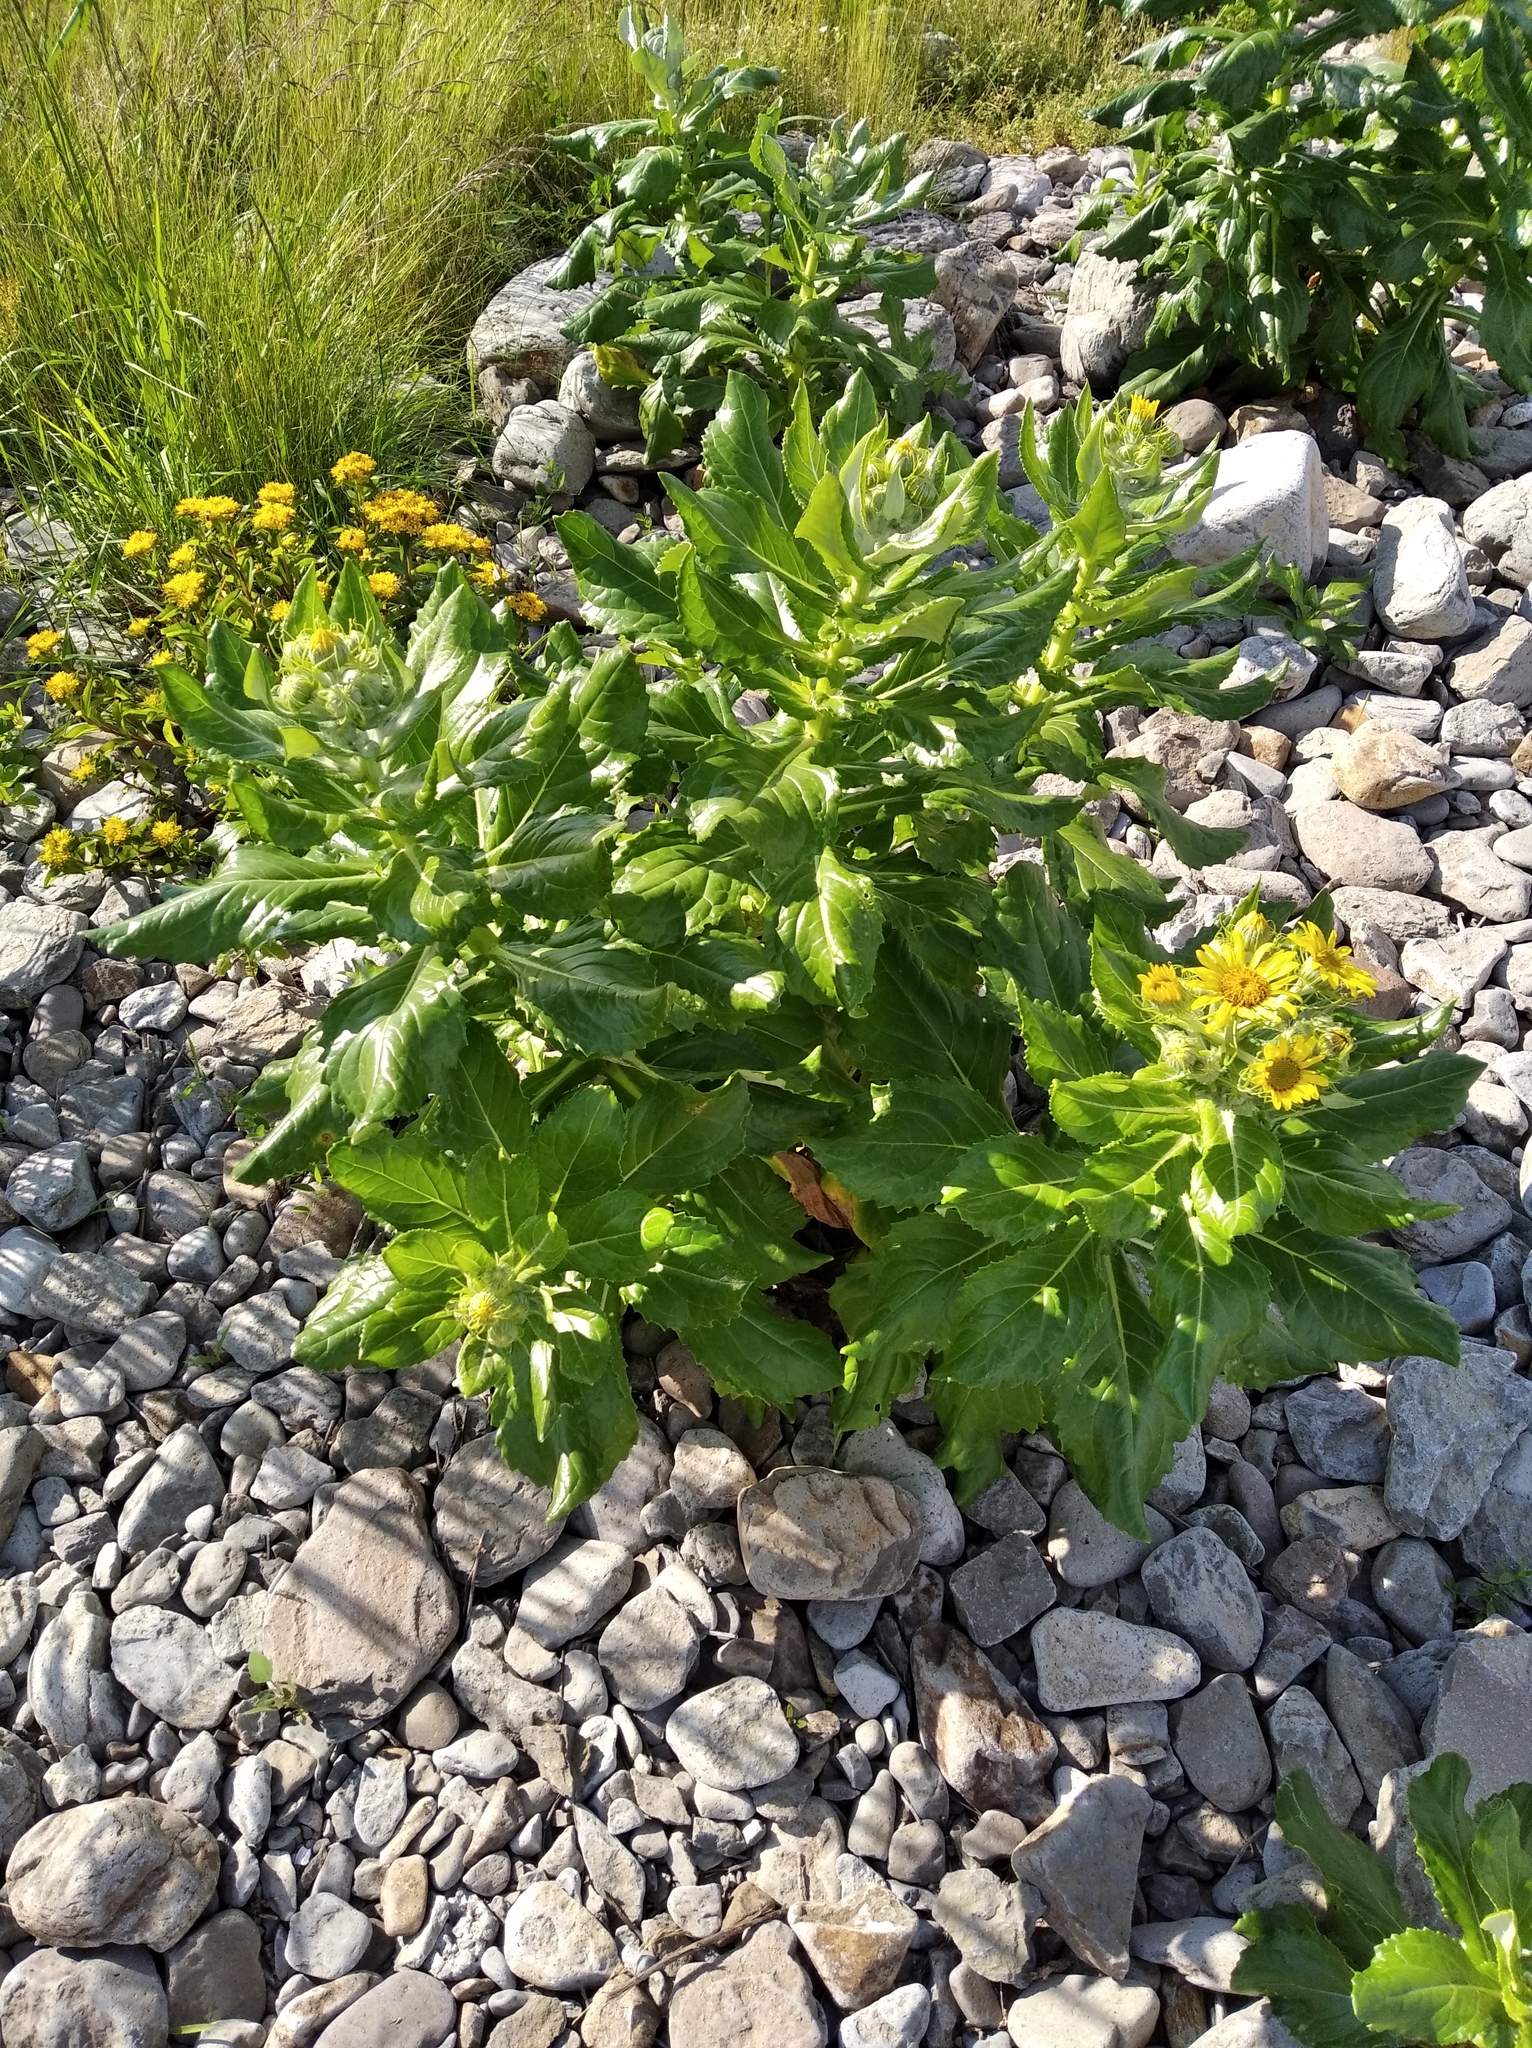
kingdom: Plantae
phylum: Tracheophyta
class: Magnoliopsida
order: Asterales
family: Asteraceae
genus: Jacobaea
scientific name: Jacobaea pseudoarnica
